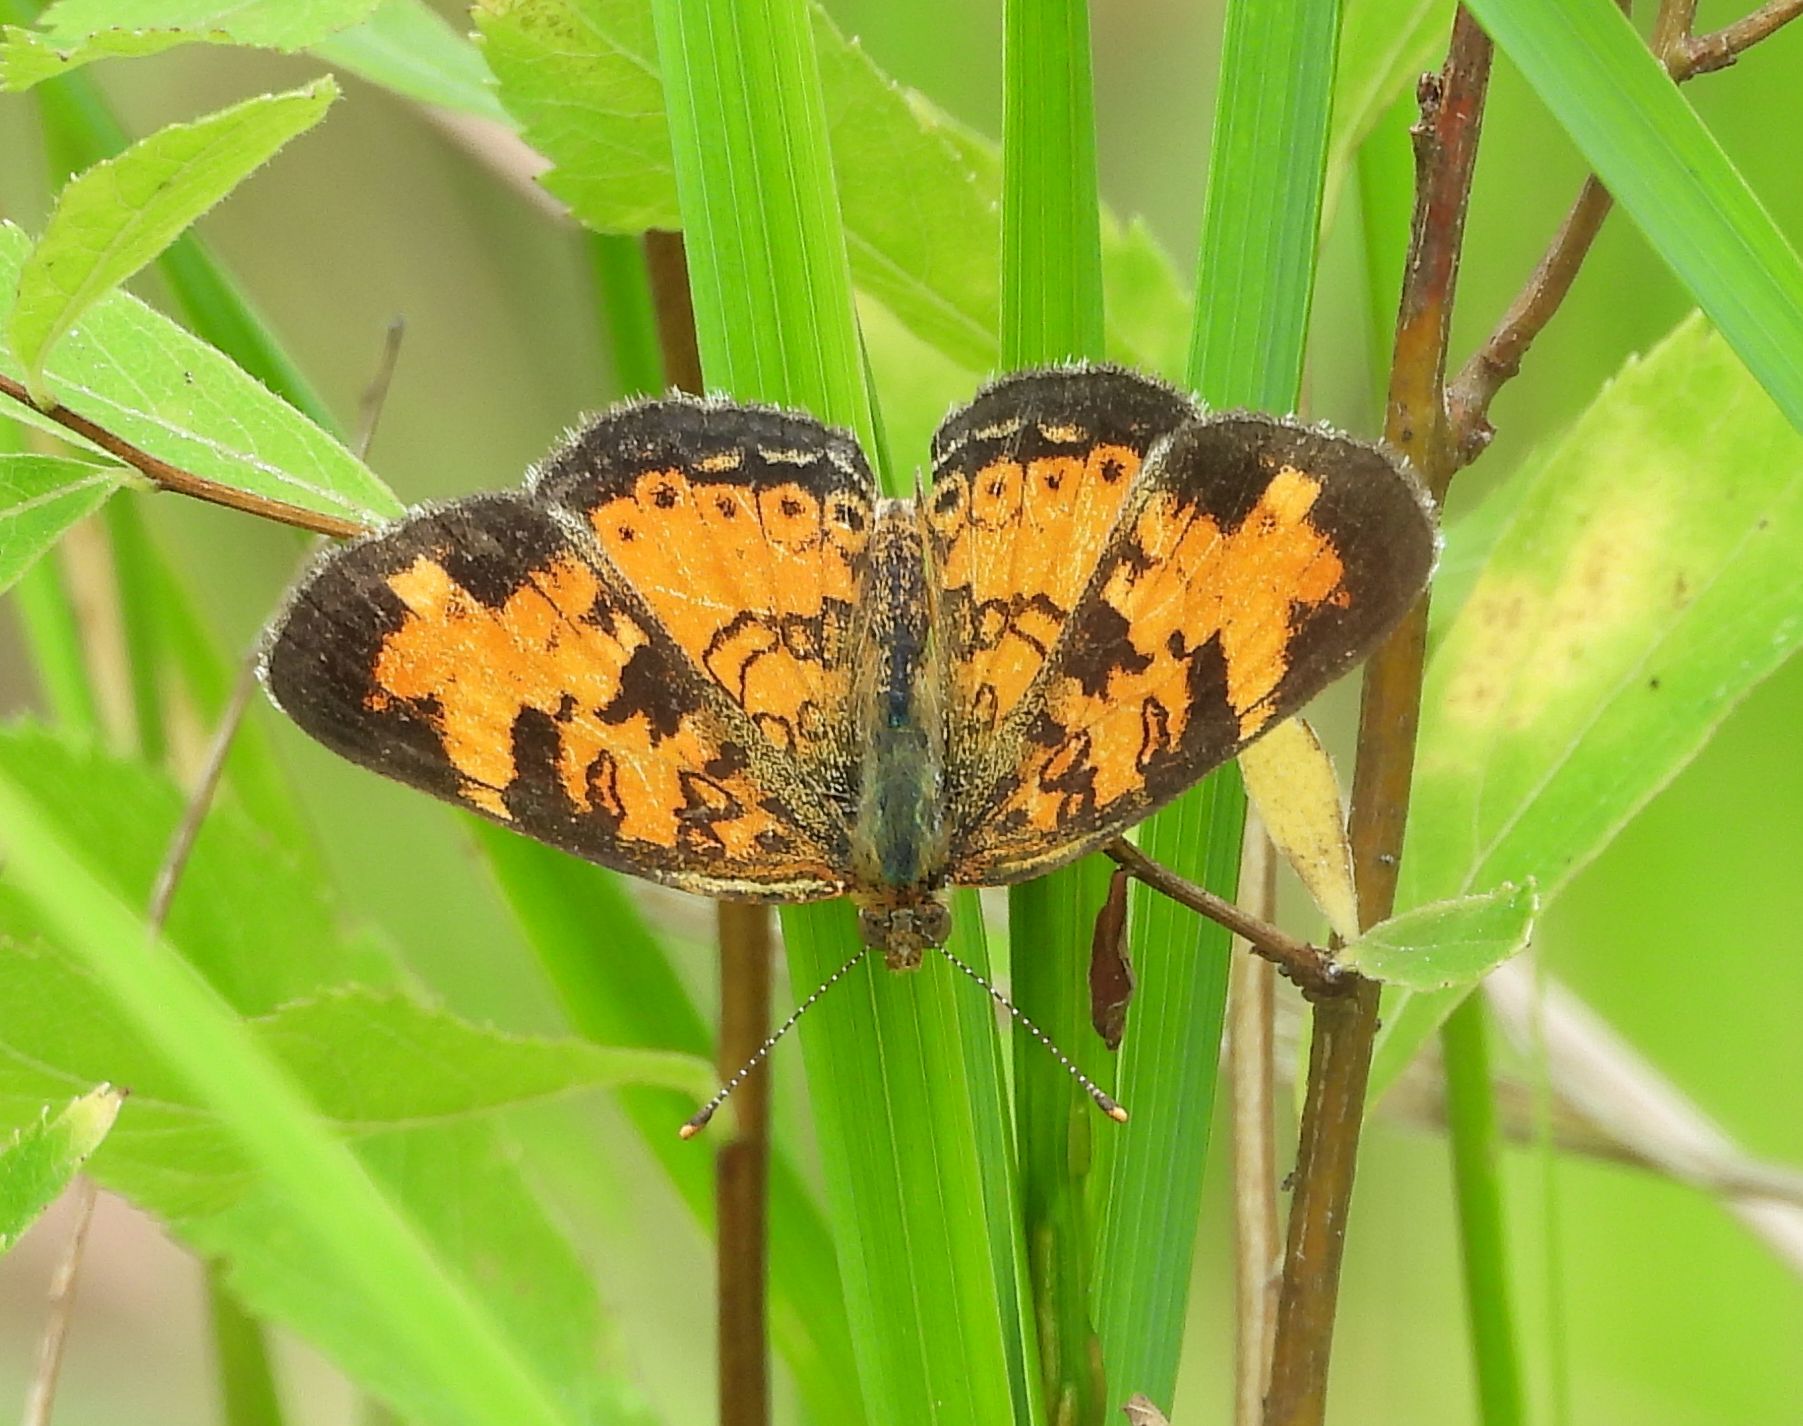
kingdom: Animalia
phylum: Arthropoda
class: Insecta
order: Lepidoptera
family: Nymphalidae
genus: Phyciodes
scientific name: Phyciodes tharos
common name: Pearl crescent
